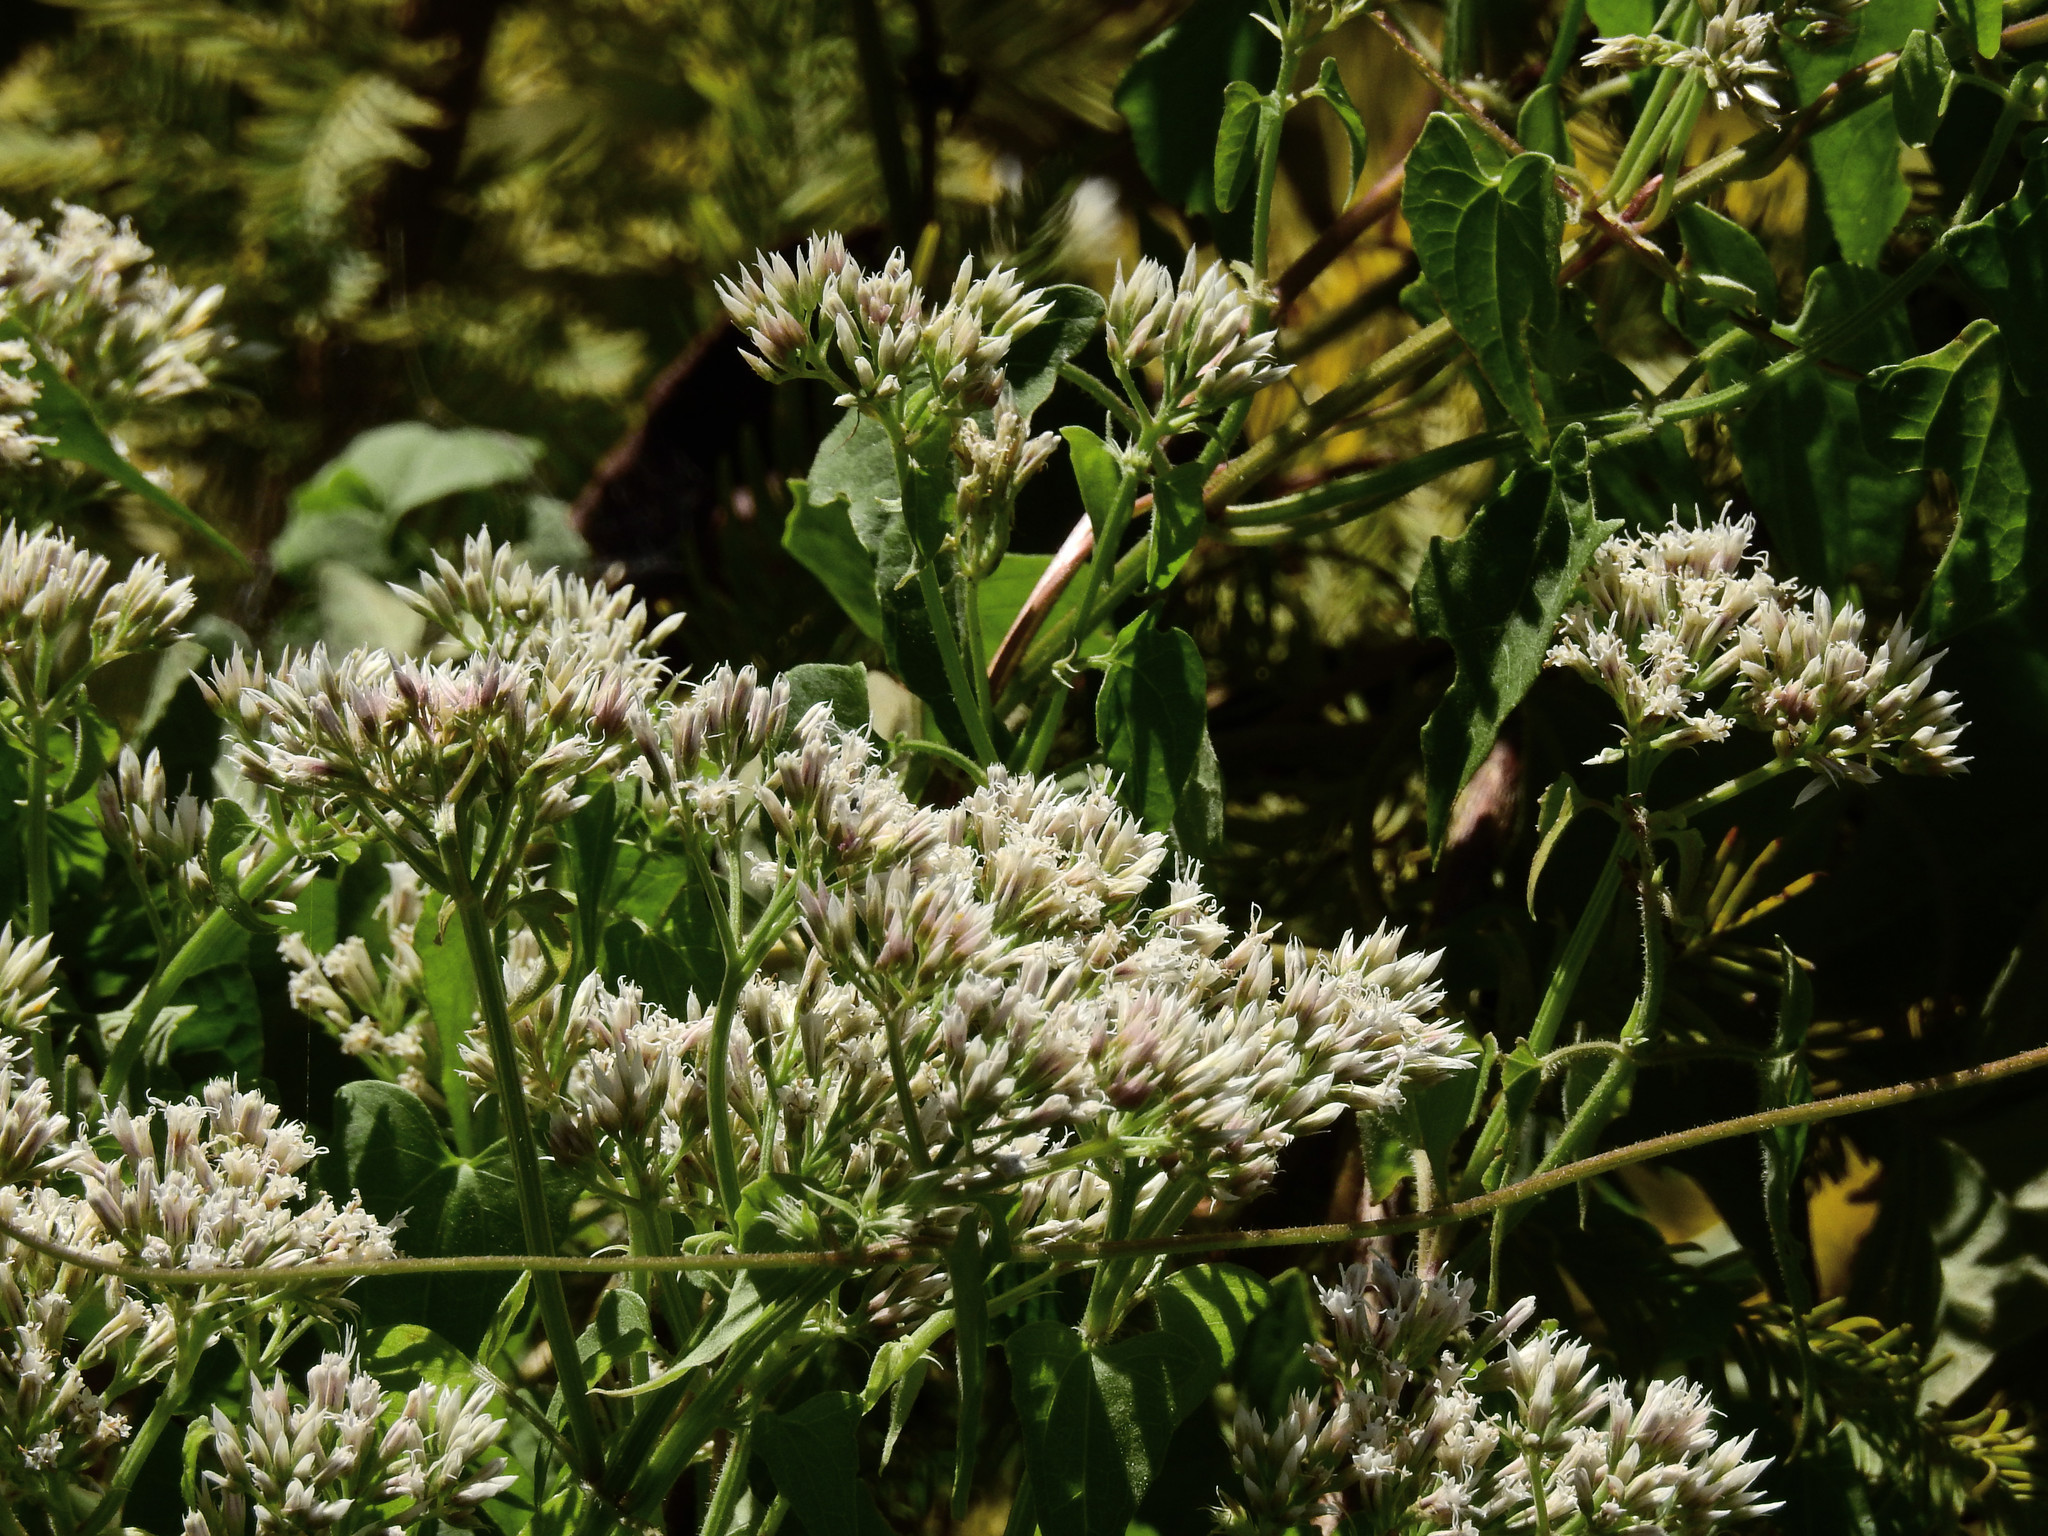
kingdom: Plantae
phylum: Tracheophyta
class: Magnoliopsida
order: Asterales
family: Asteraceae
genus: Mikania
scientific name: Mikania scandens
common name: Climbing hempvine
